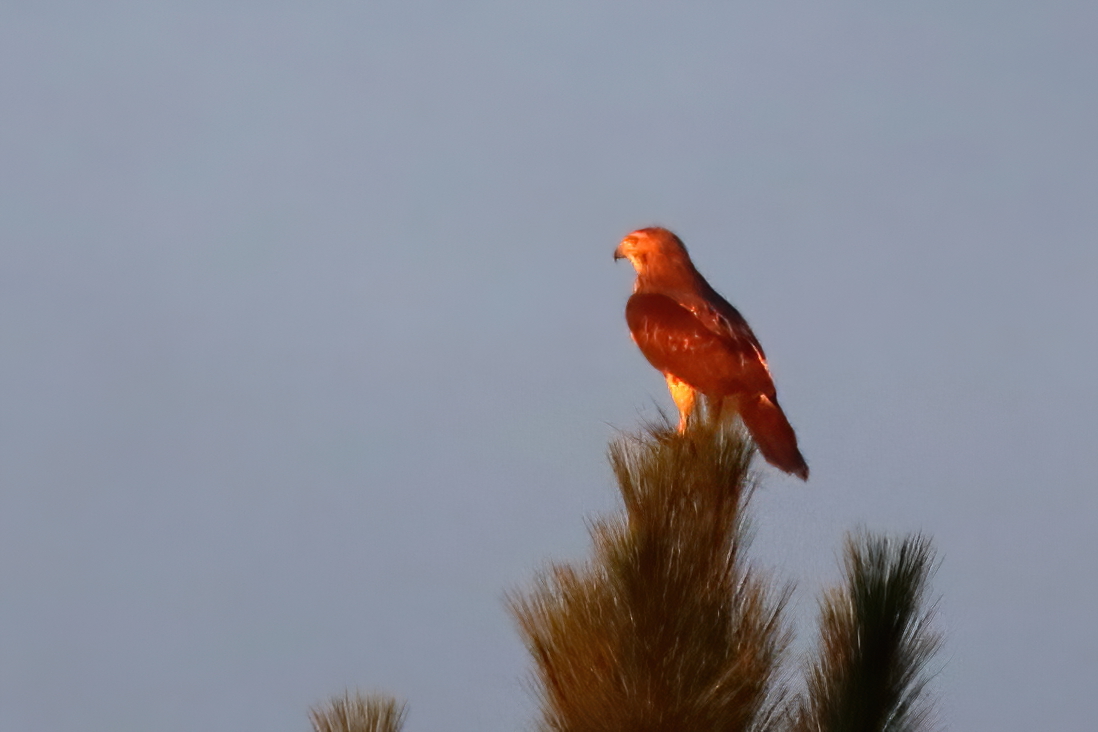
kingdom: Animalia
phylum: Chordata
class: Aves
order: Accipitriformes
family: Accipitridae
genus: Buteo
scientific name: Buteo jamaicensis
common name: Red-tailed hawk
